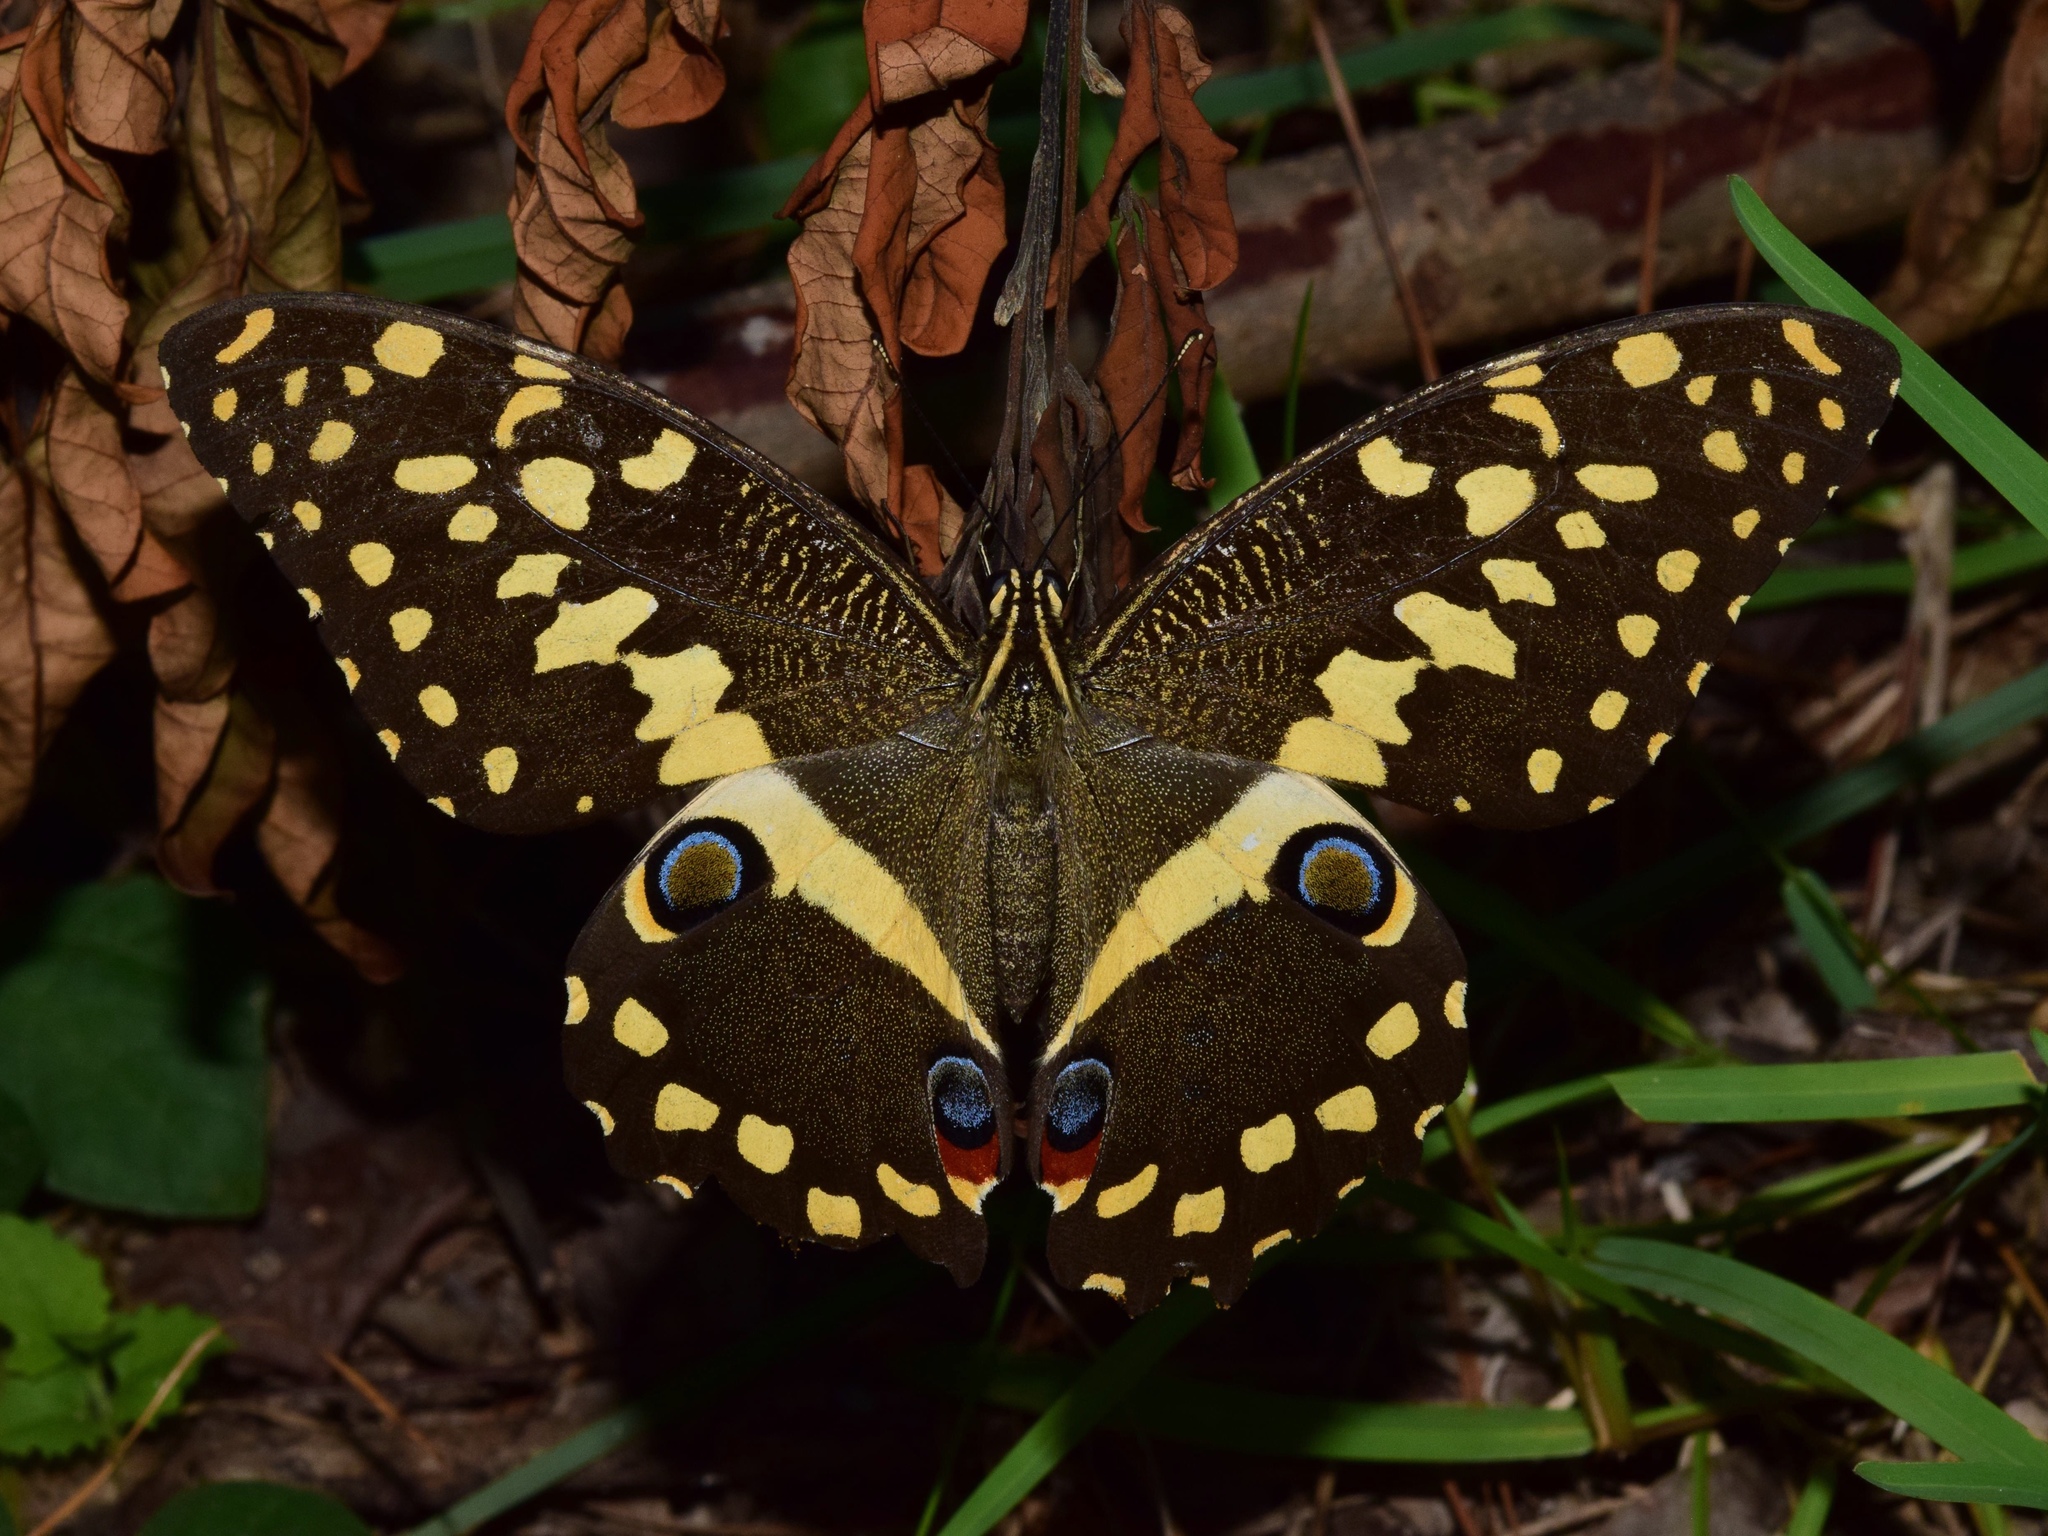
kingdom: Animalia
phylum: Arthropoda
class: Insecta
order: Lepidoptera
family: Papilionidae
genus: Papilio
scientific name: Papilio demodocus
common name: Christmas butterfly
